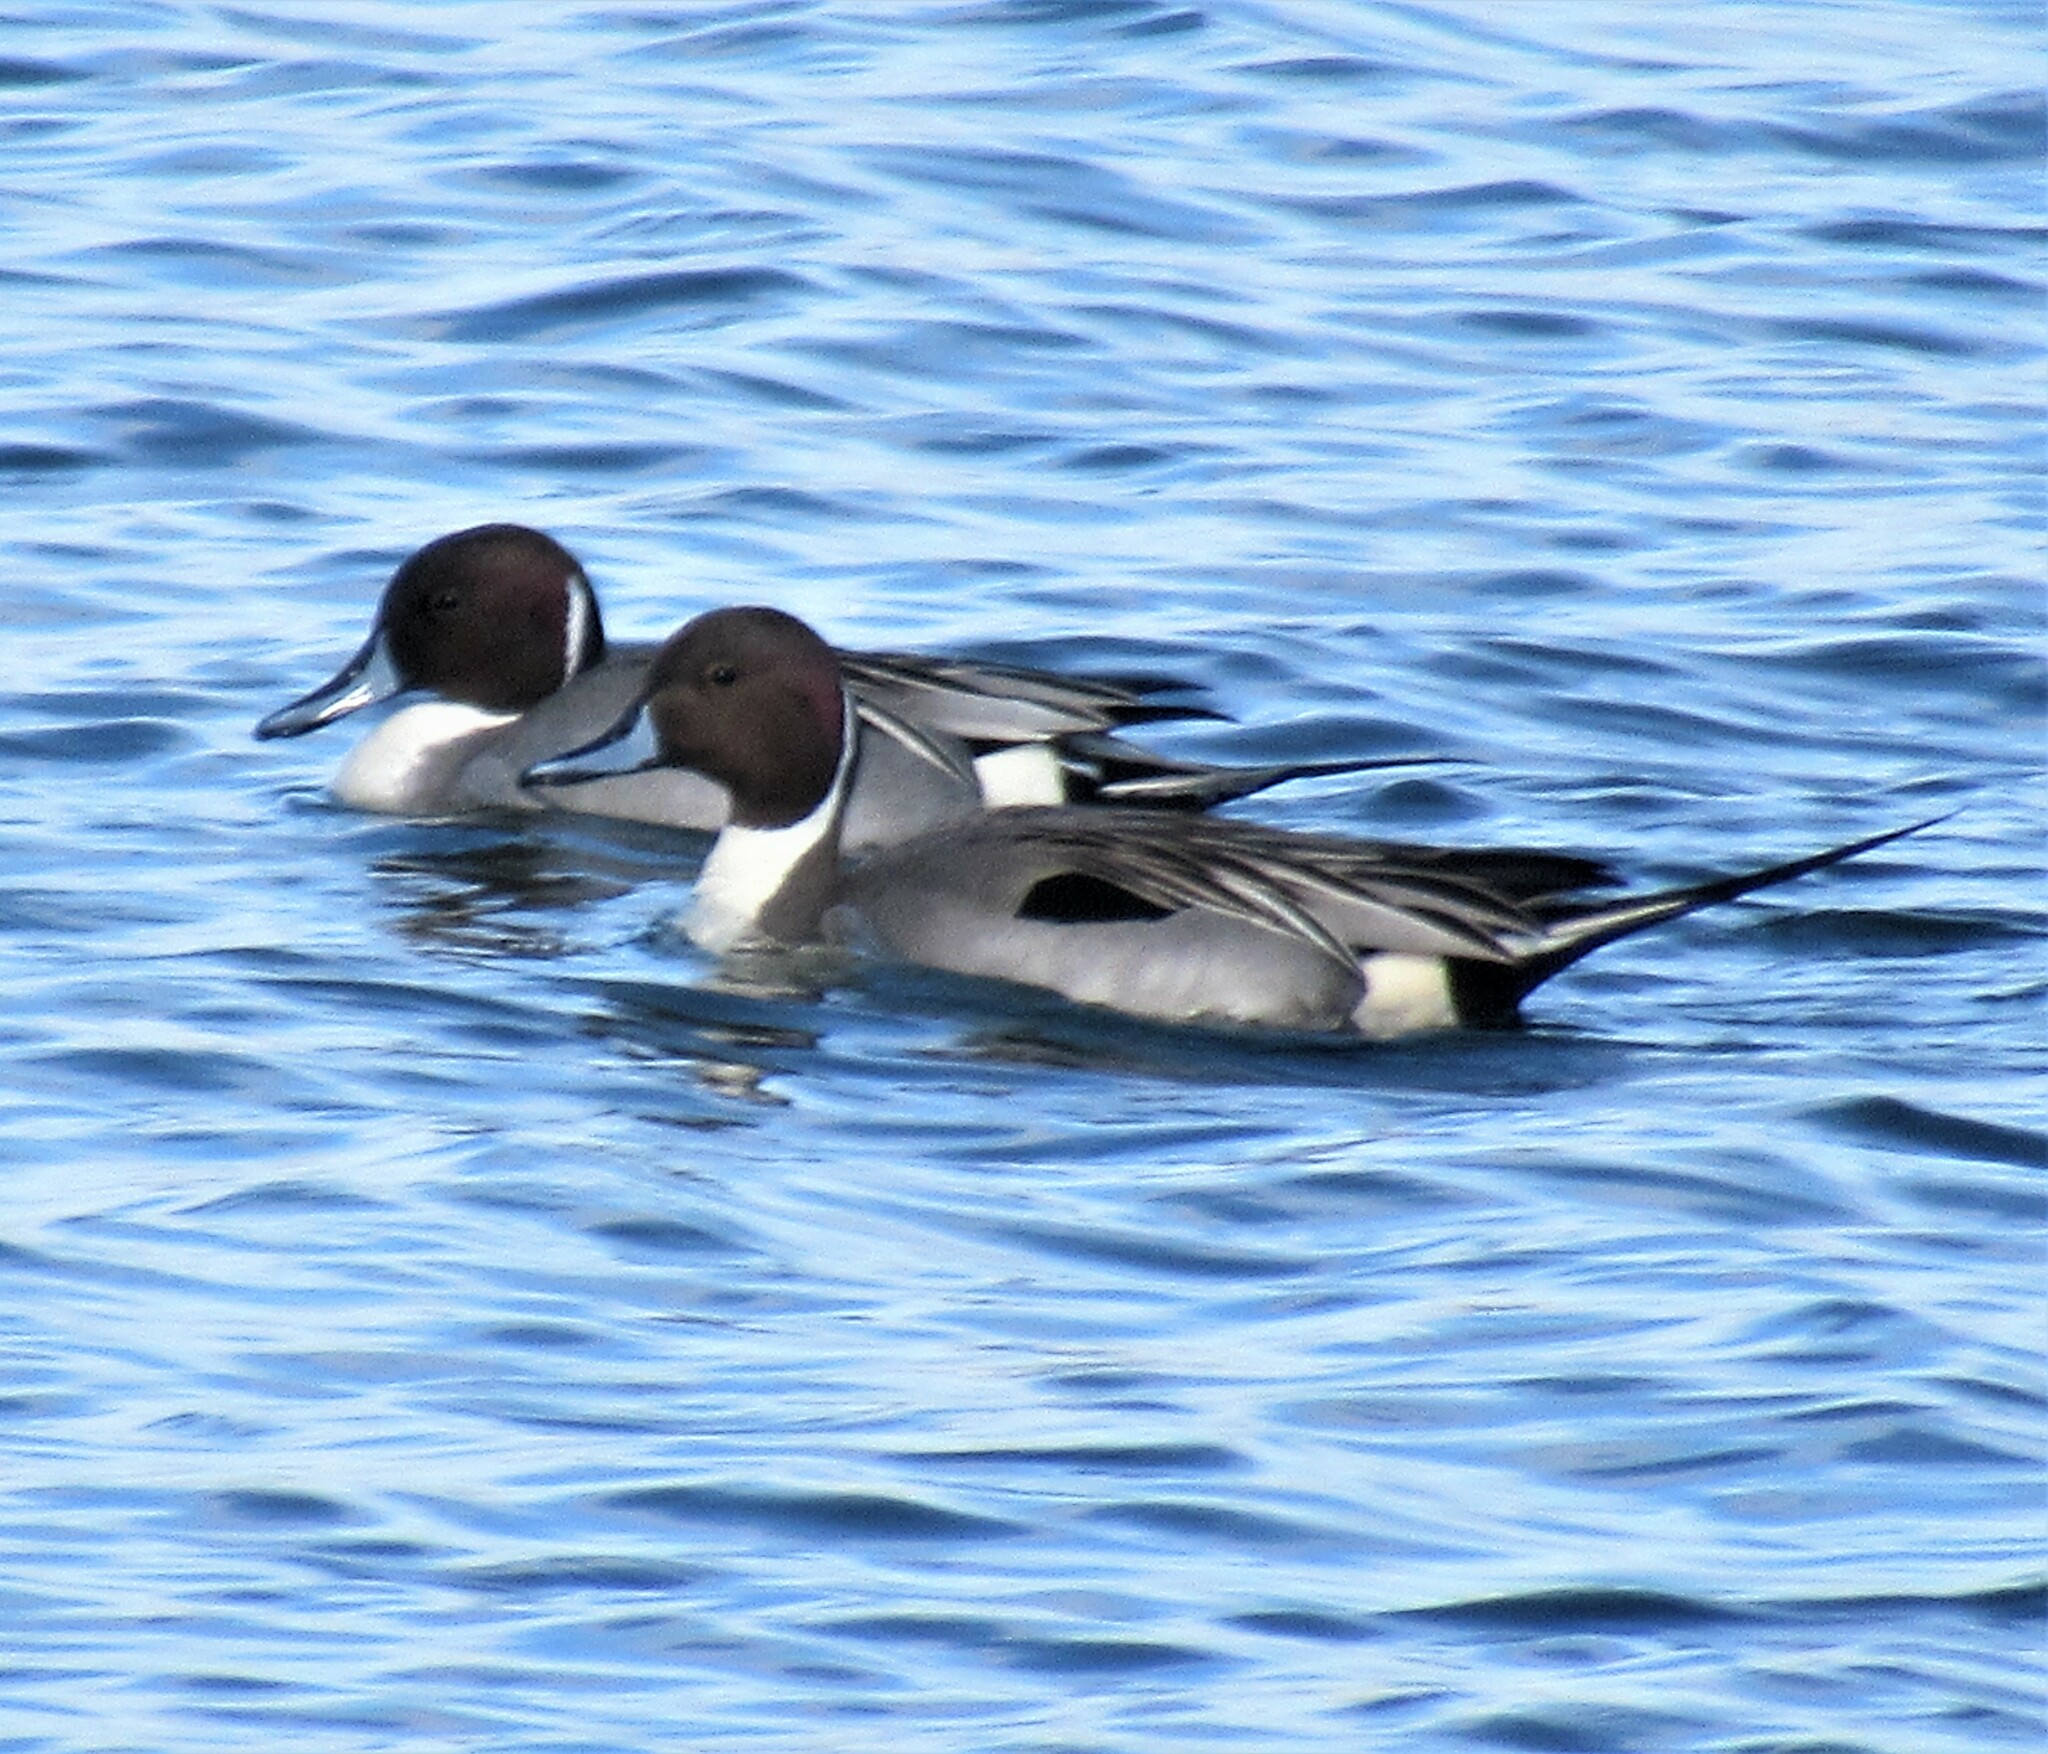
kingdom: Animalia
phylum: Chordata
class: Aves
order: Anseriformes
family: Anatidae
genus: Anas
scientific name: Anas acuta
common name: Northern pintail
